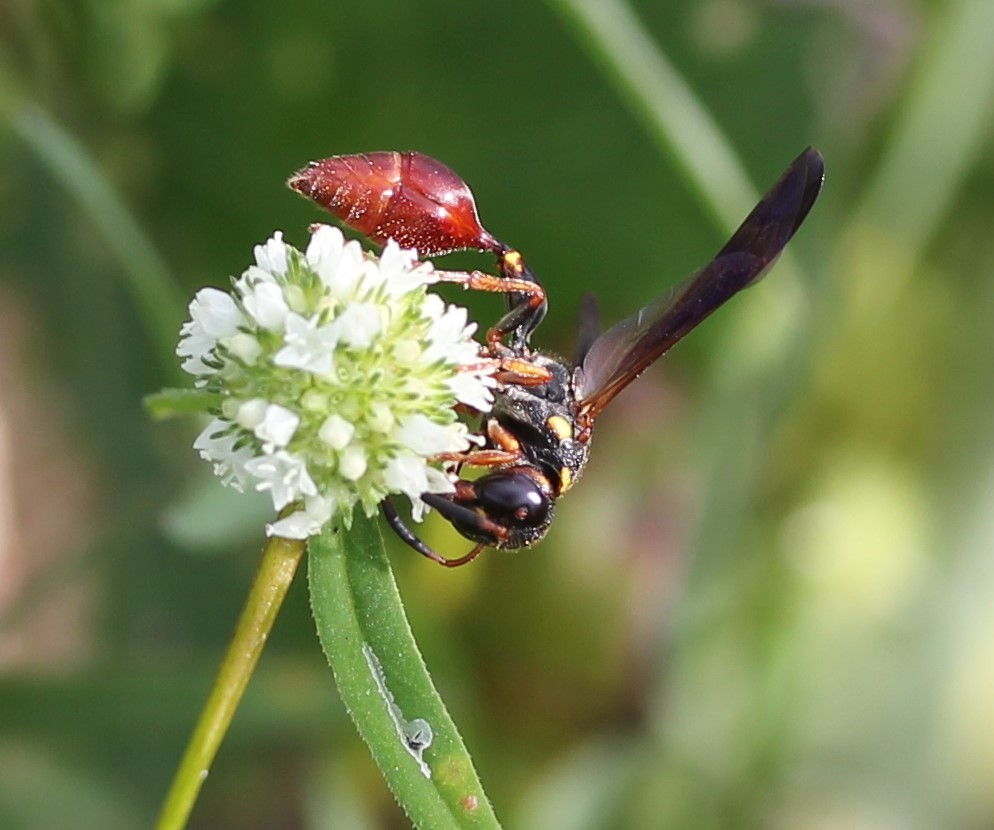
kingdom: Animalia
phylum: Arthropoda
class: Insecta
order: Hymenoptera
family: Eumenidae
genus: Zethus
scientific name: Zethus slossonae
